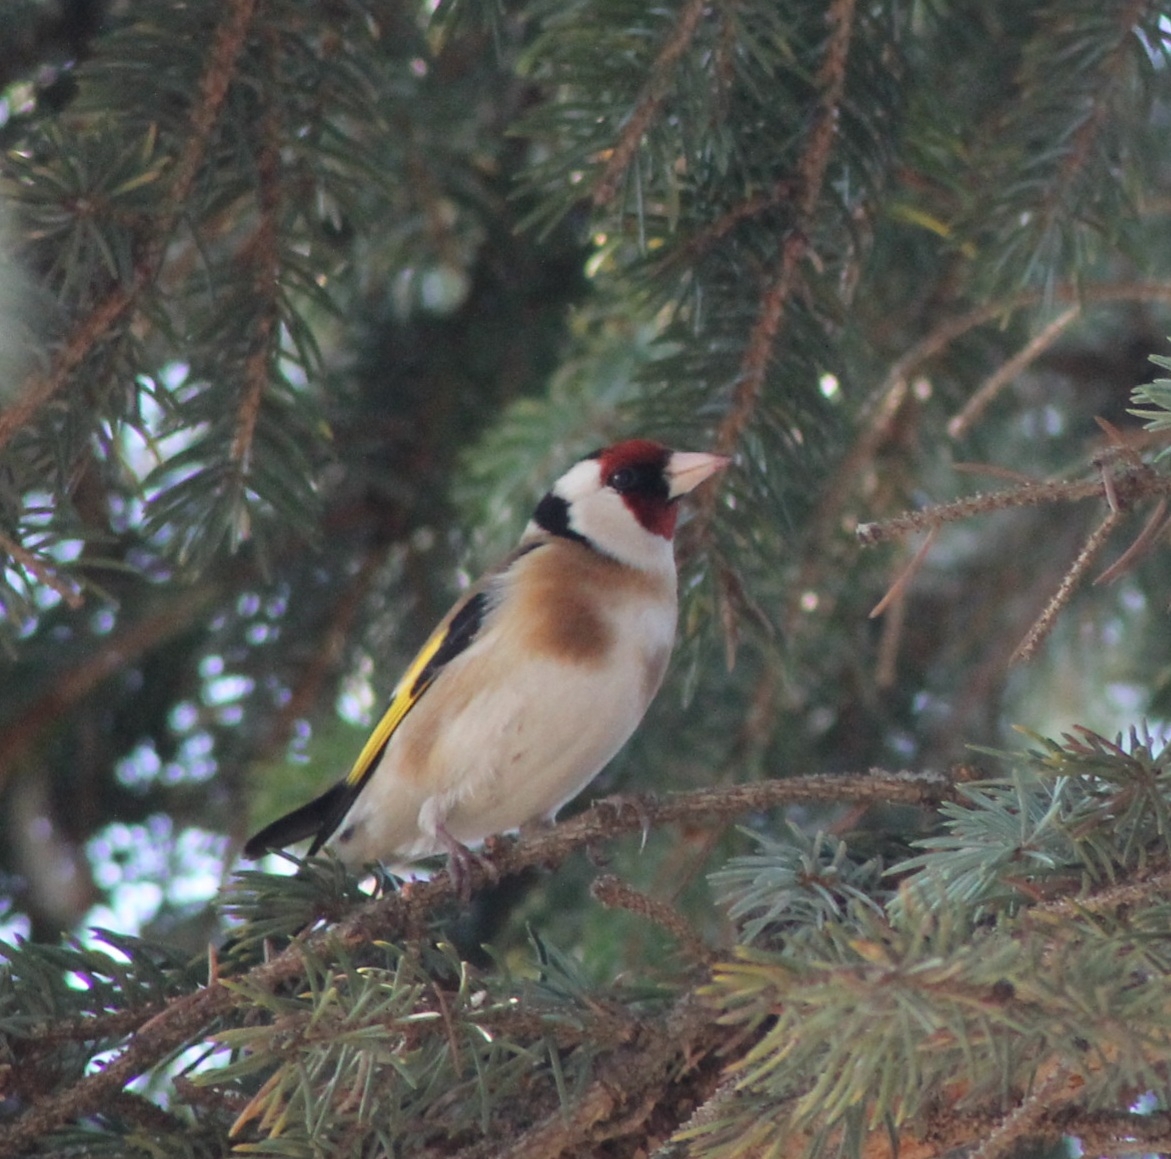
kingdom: Animalia
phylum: Chordata
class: Aves
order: Passeriformes
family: Fringillidae
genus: Carduelis
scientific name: Carduelis carduelis
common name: European goldfinch
